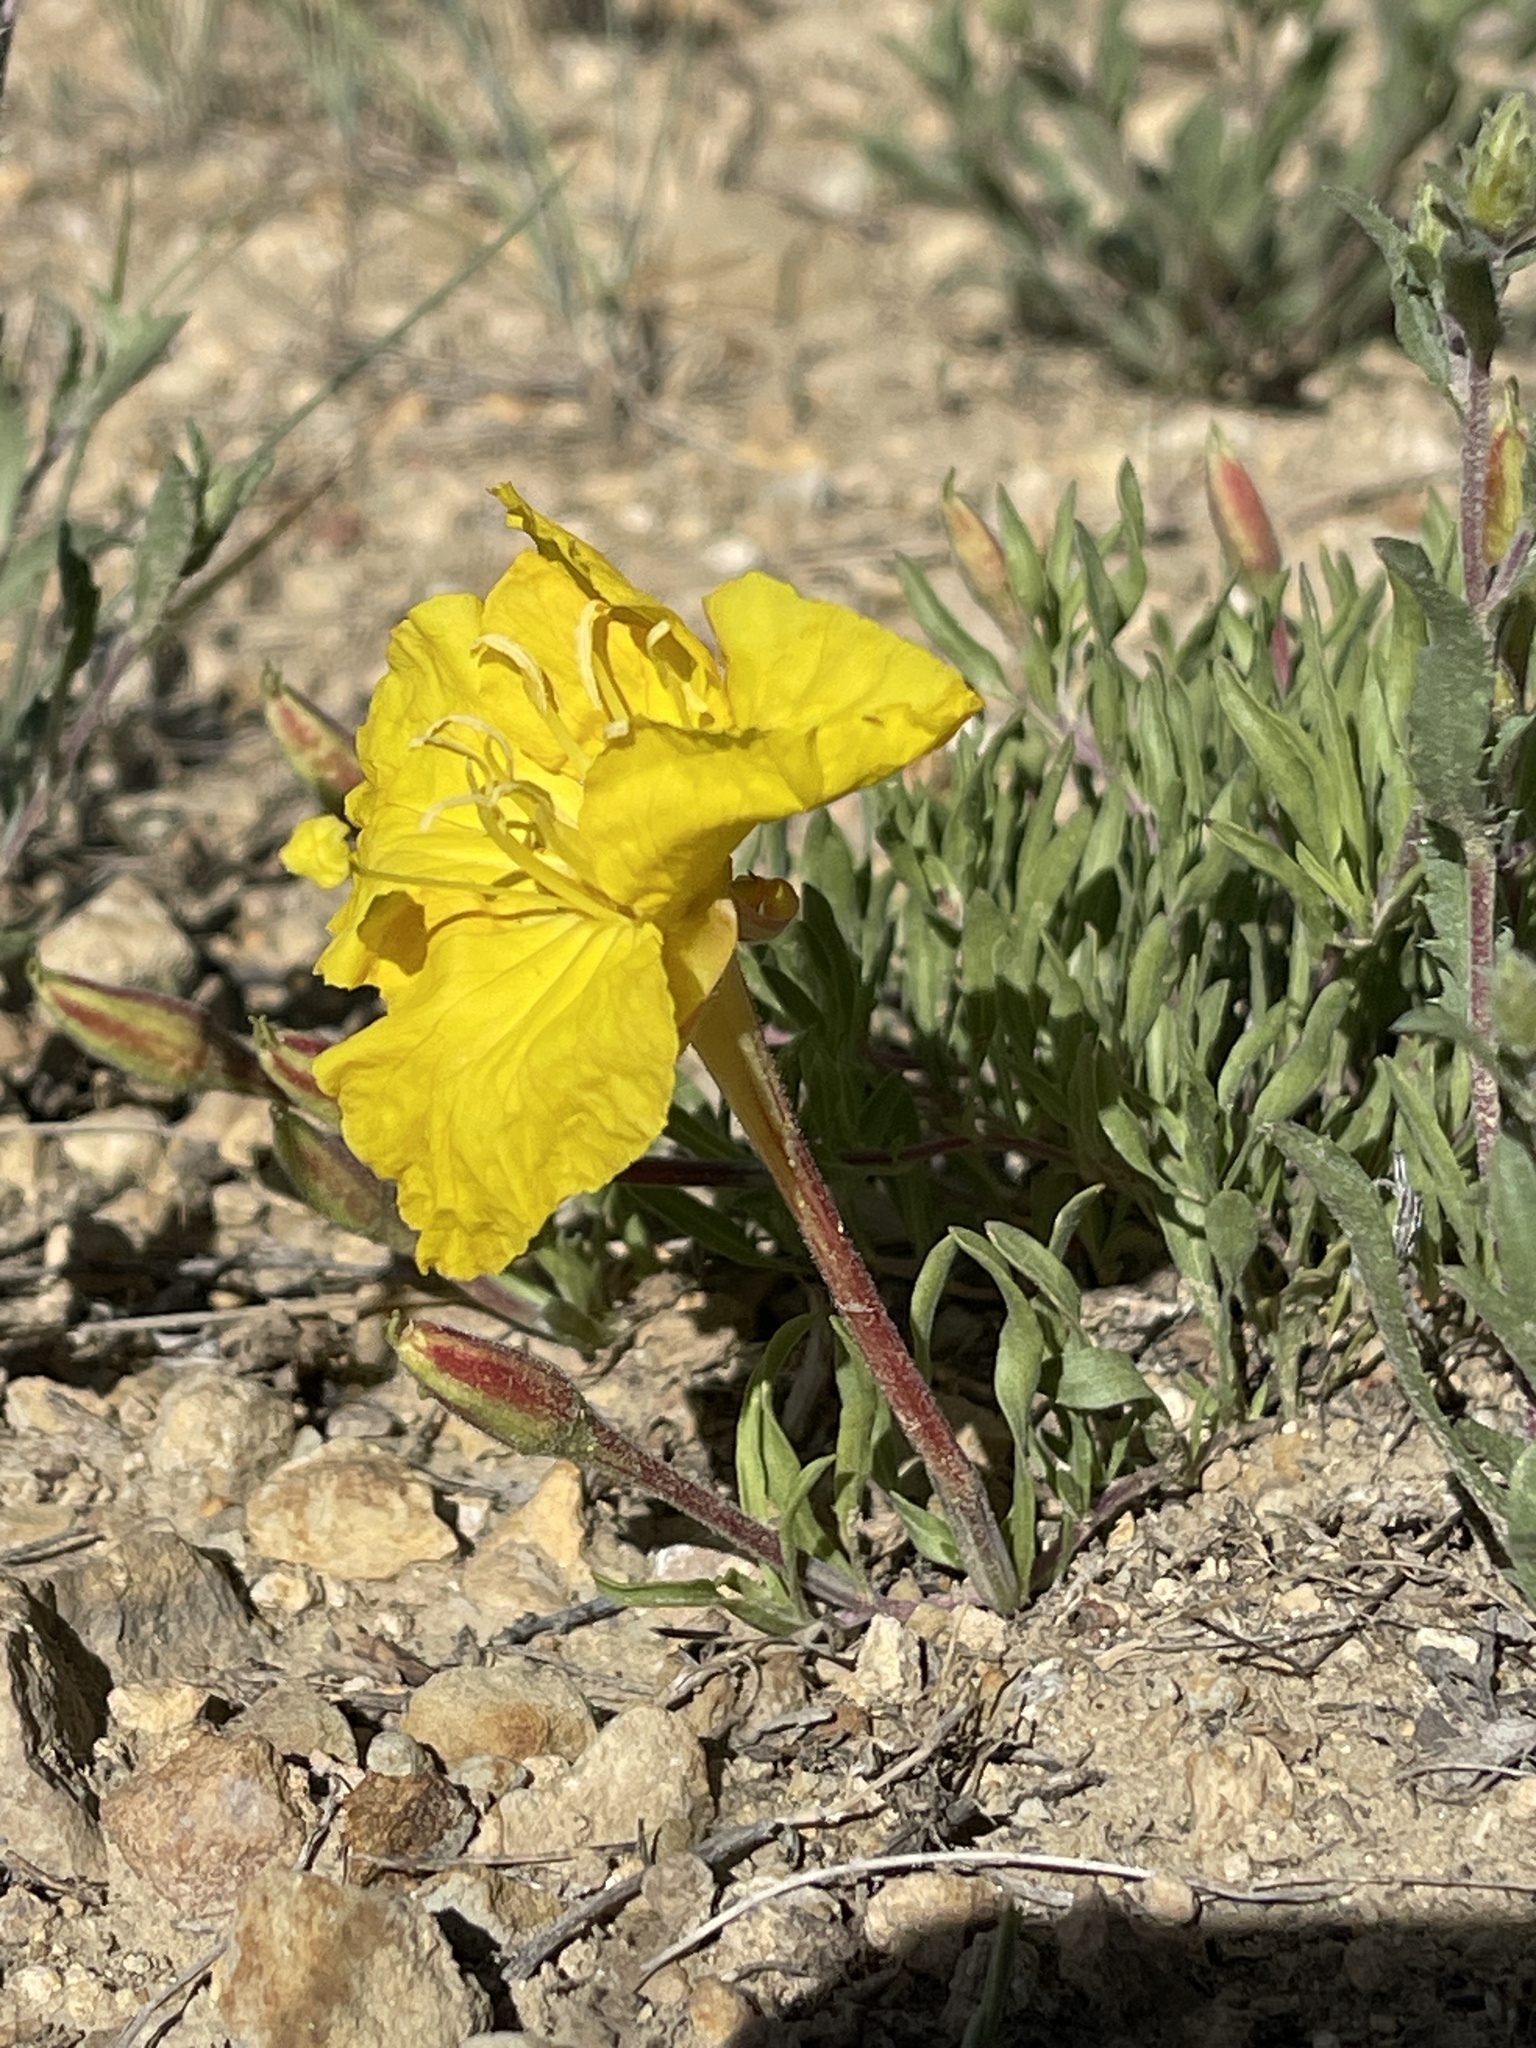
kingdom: Plantae
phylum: Tracheophyta
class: Magnoliopsida
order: Myrtales
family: Onagraceae
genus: Oenothera
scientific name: Oenothera lavandulifolia
